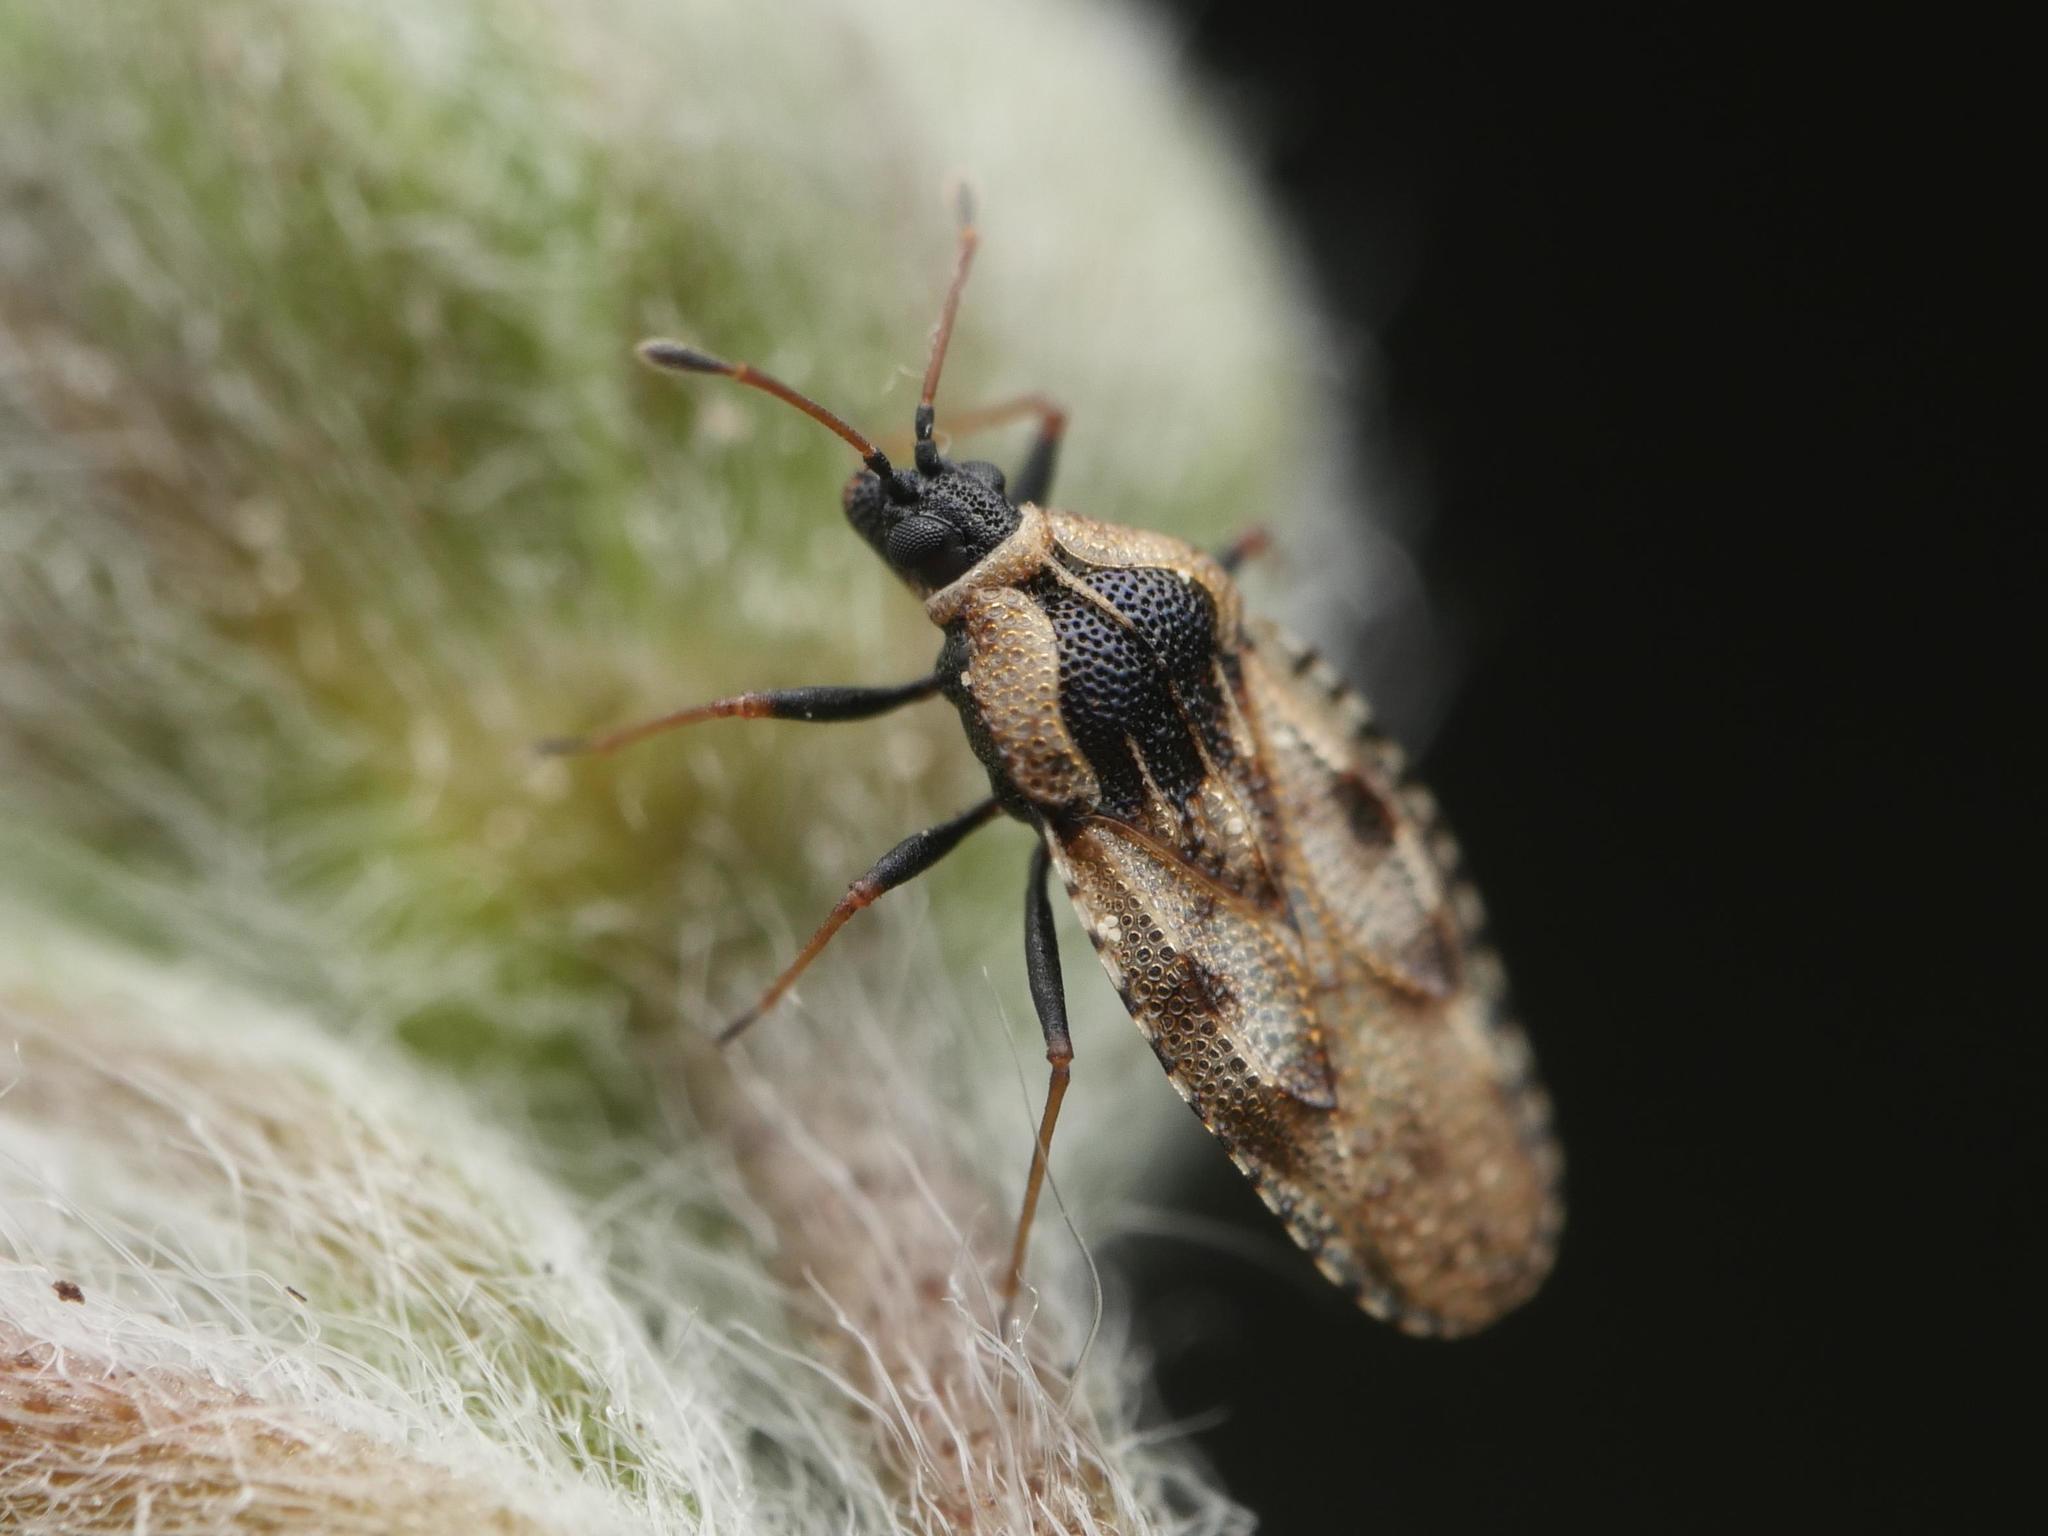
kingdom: Animalia
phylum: Arthropoda
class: Insecta
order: Hemiptera
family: Tingidae
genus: Dictyla
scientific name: Dictyla echii
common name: Lace bug
